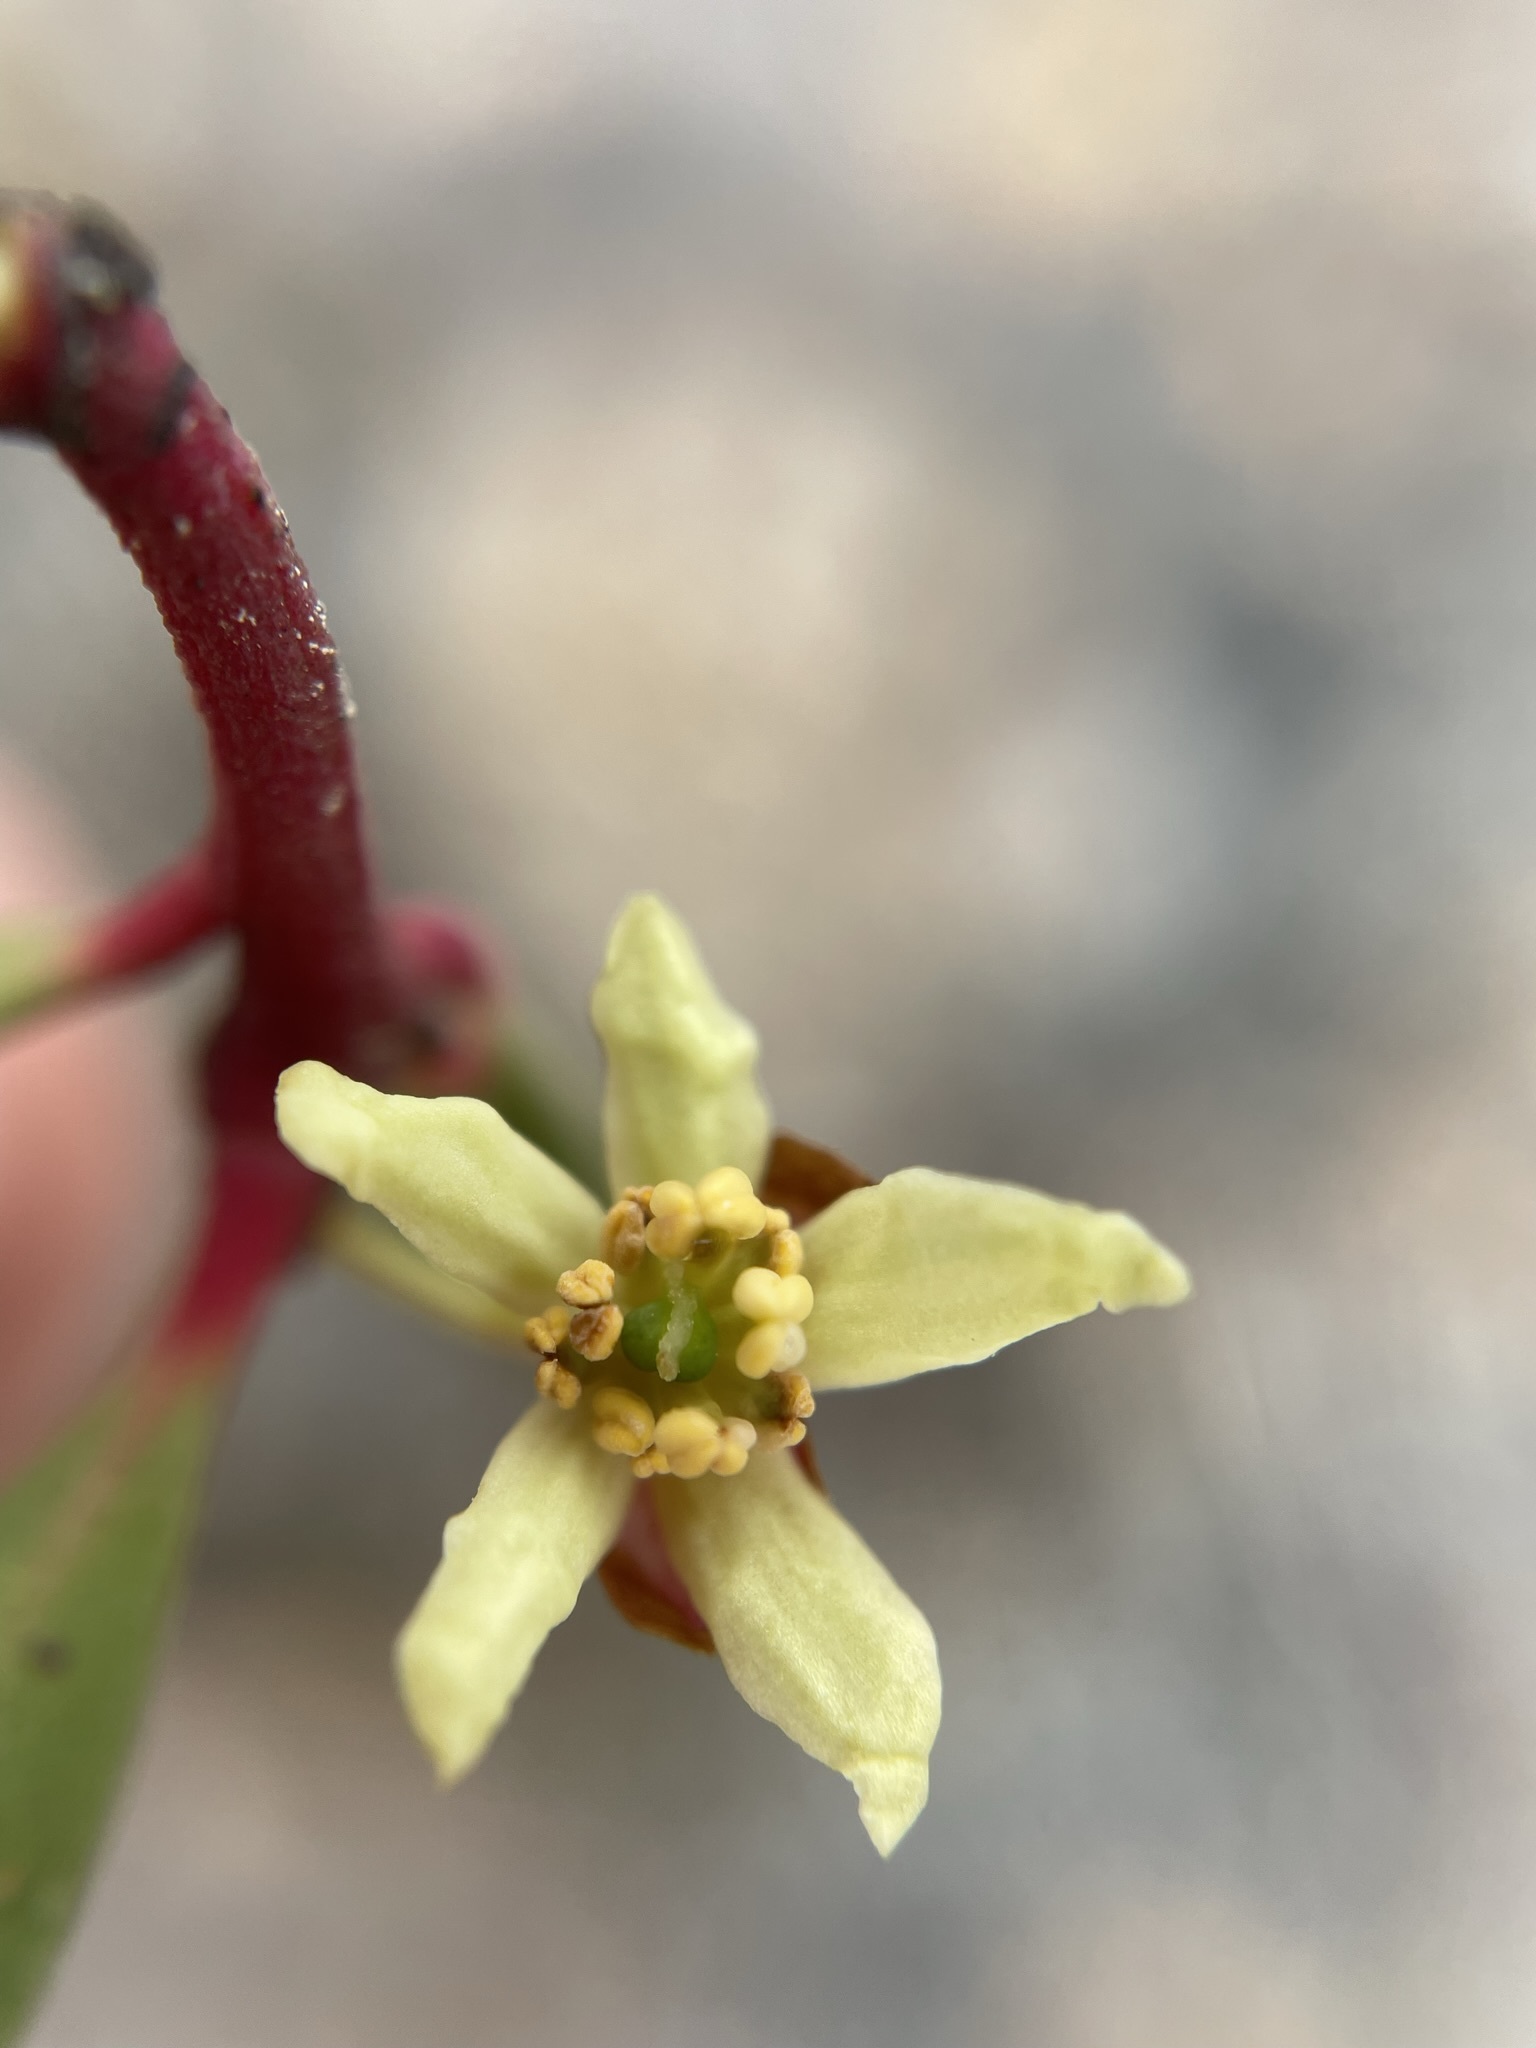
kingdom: Plantae
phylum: Tracheophyta
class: Magnoliopsida
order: Canellales
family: Winteraceae
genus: Drimys
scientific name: Drimys aromatica
